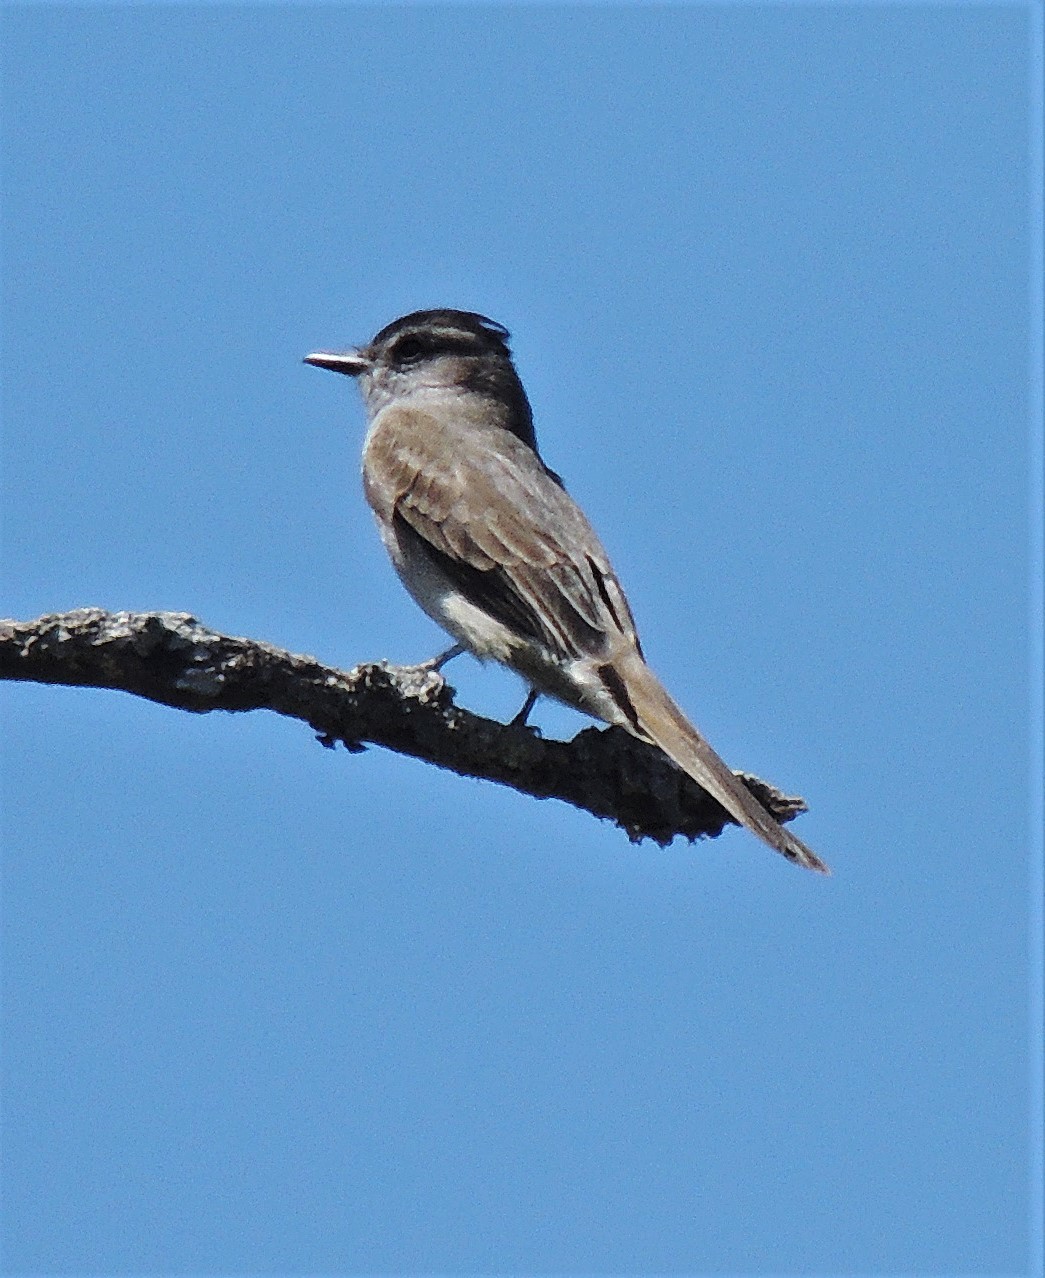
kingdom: Animalia
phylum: Chordata
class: Aves
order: Passeriformes
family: Tyrannidae
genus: Empidonomus
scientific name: Empidonomus aurantioatrocristatus
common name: Crowned slaty flycatcher
